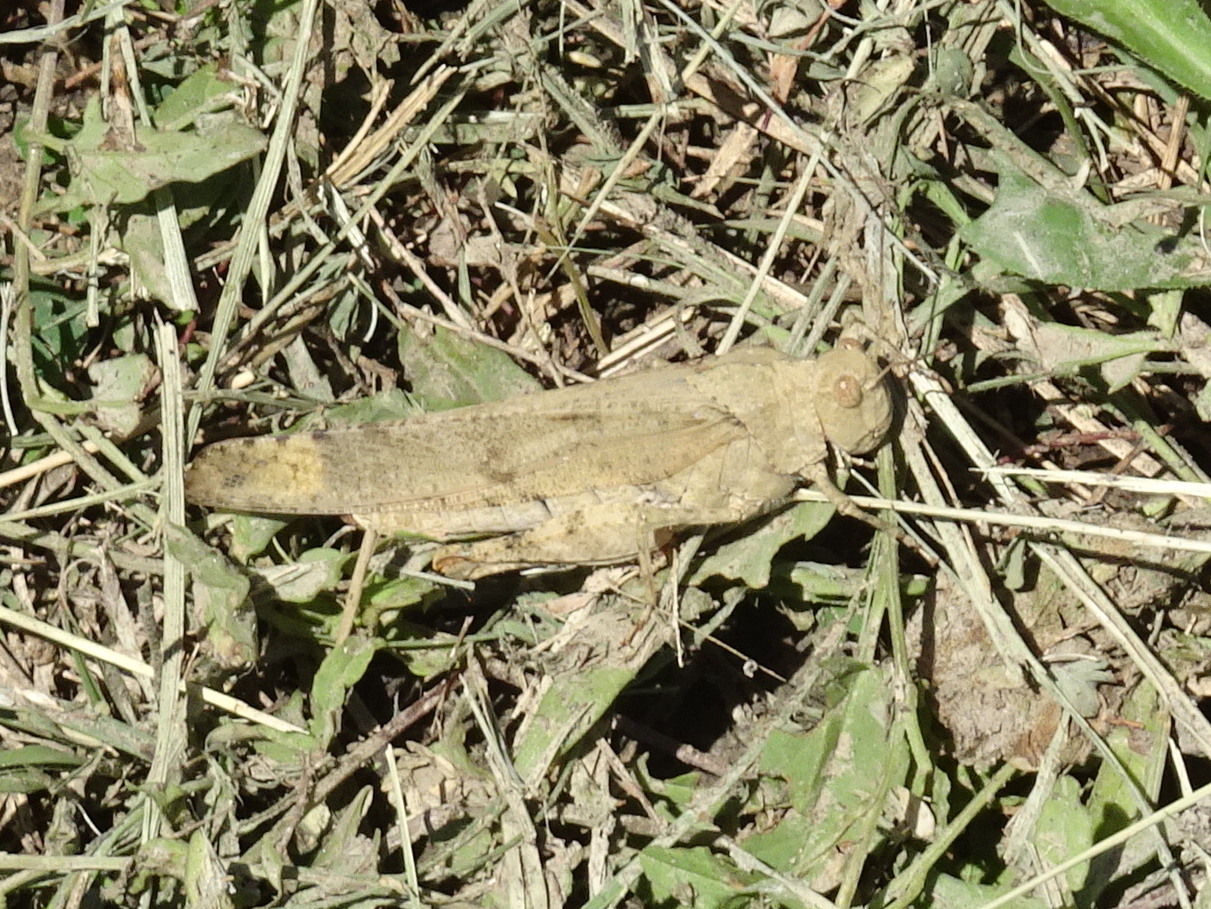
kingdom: Animalia
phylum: Arthropoda
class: Insecta
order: Orthoptera
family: Acrididae
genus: Dissosteira
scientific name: Dissosteira carolina
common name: Carolina grasshopper
